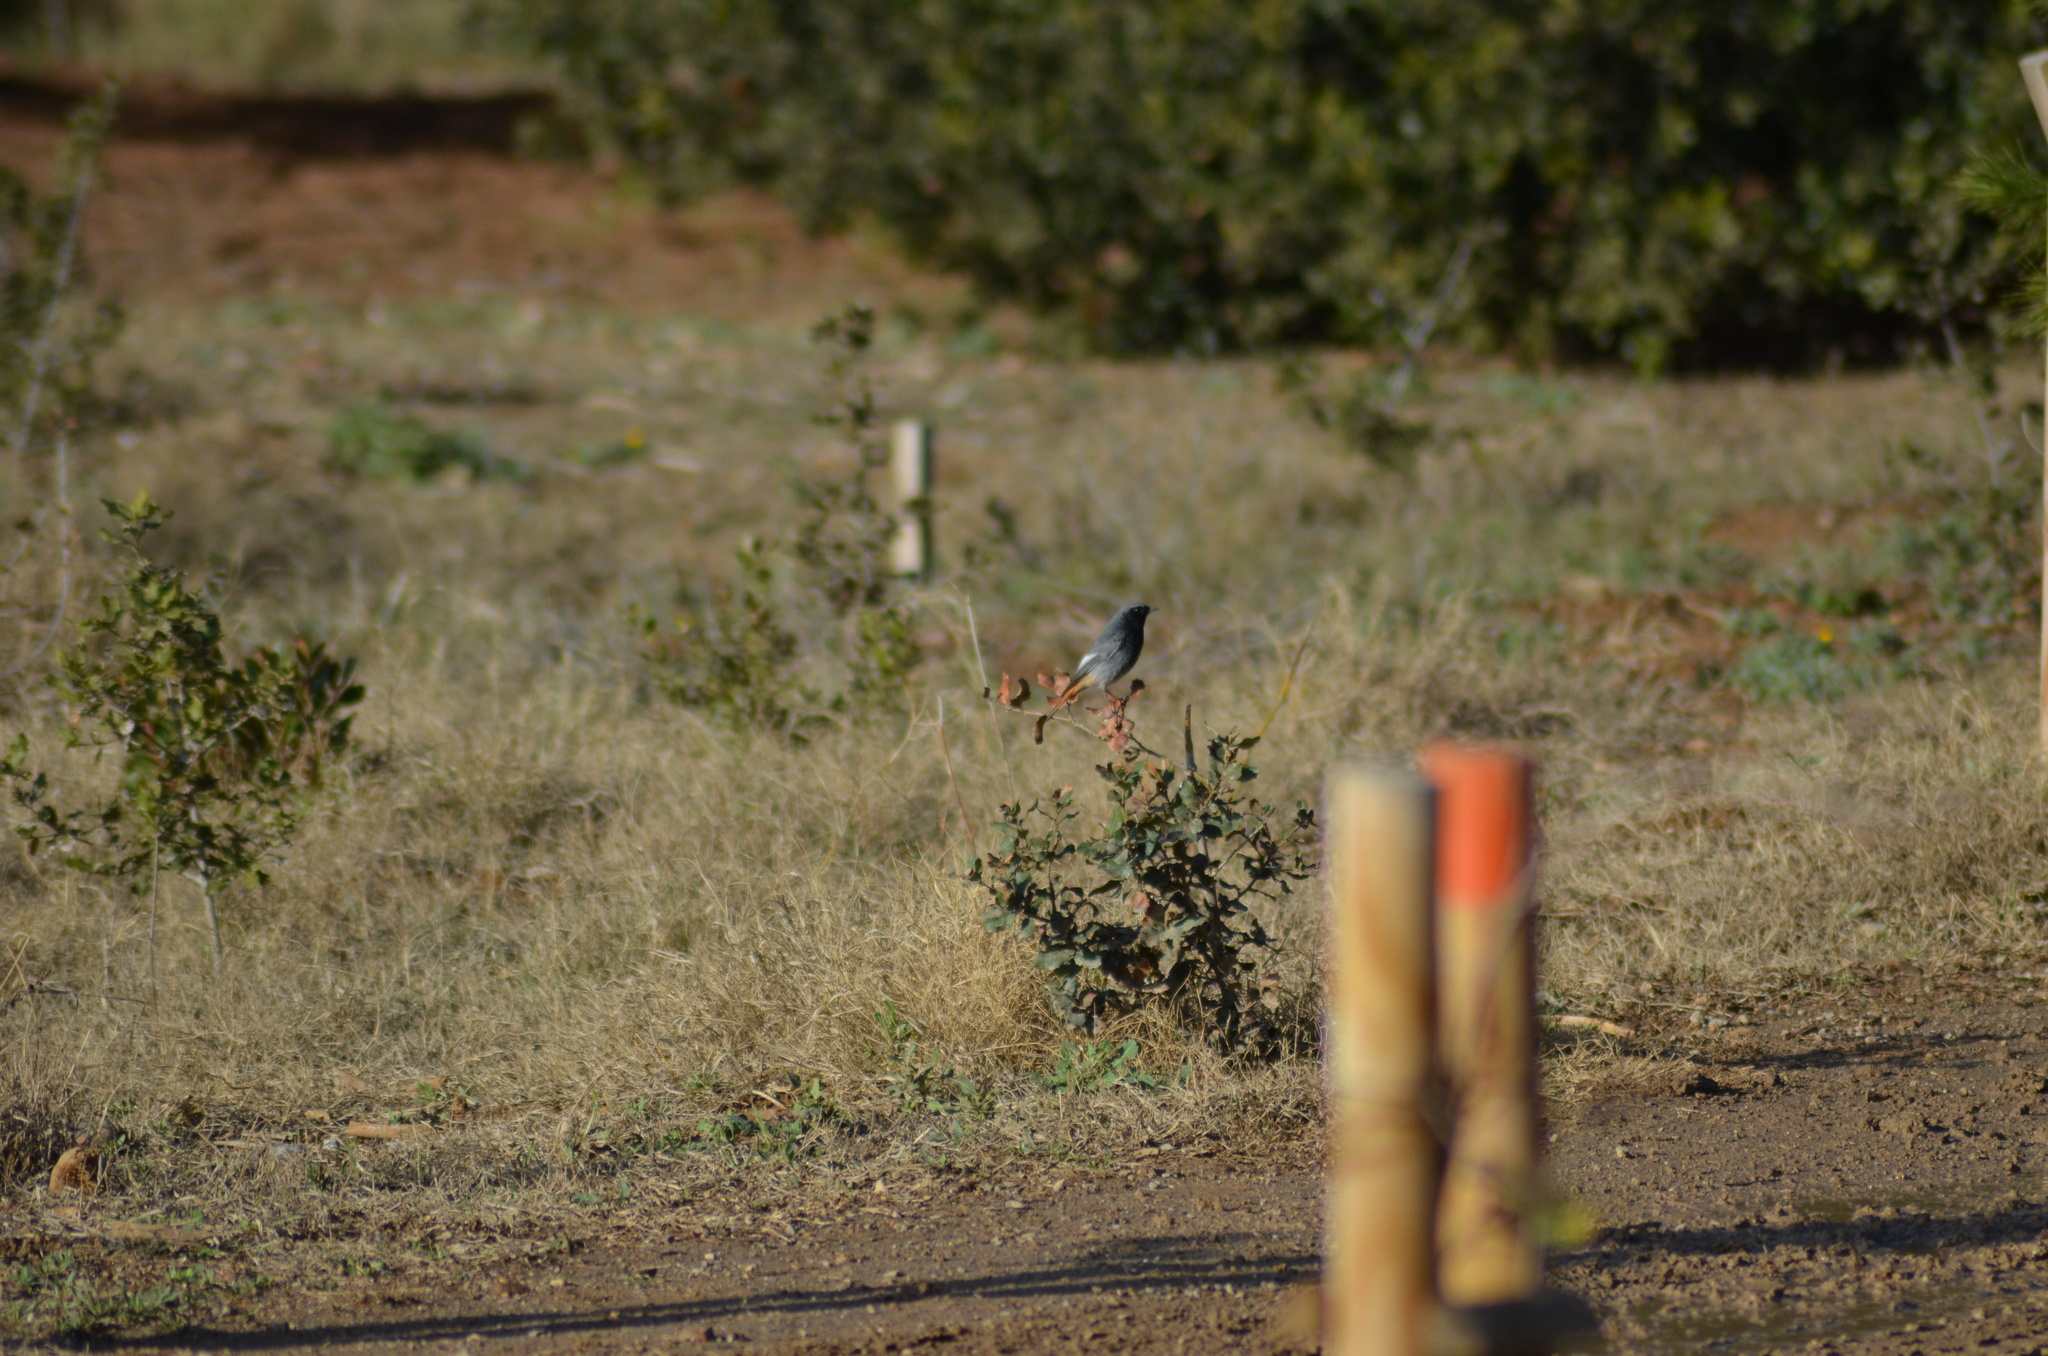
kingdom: Animalia
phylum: Chordata
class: Aves
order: Passeriformes
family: Muscicapidae
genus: Phoenicurus
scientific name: Phoenicurus ochruros
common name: Black redstart
